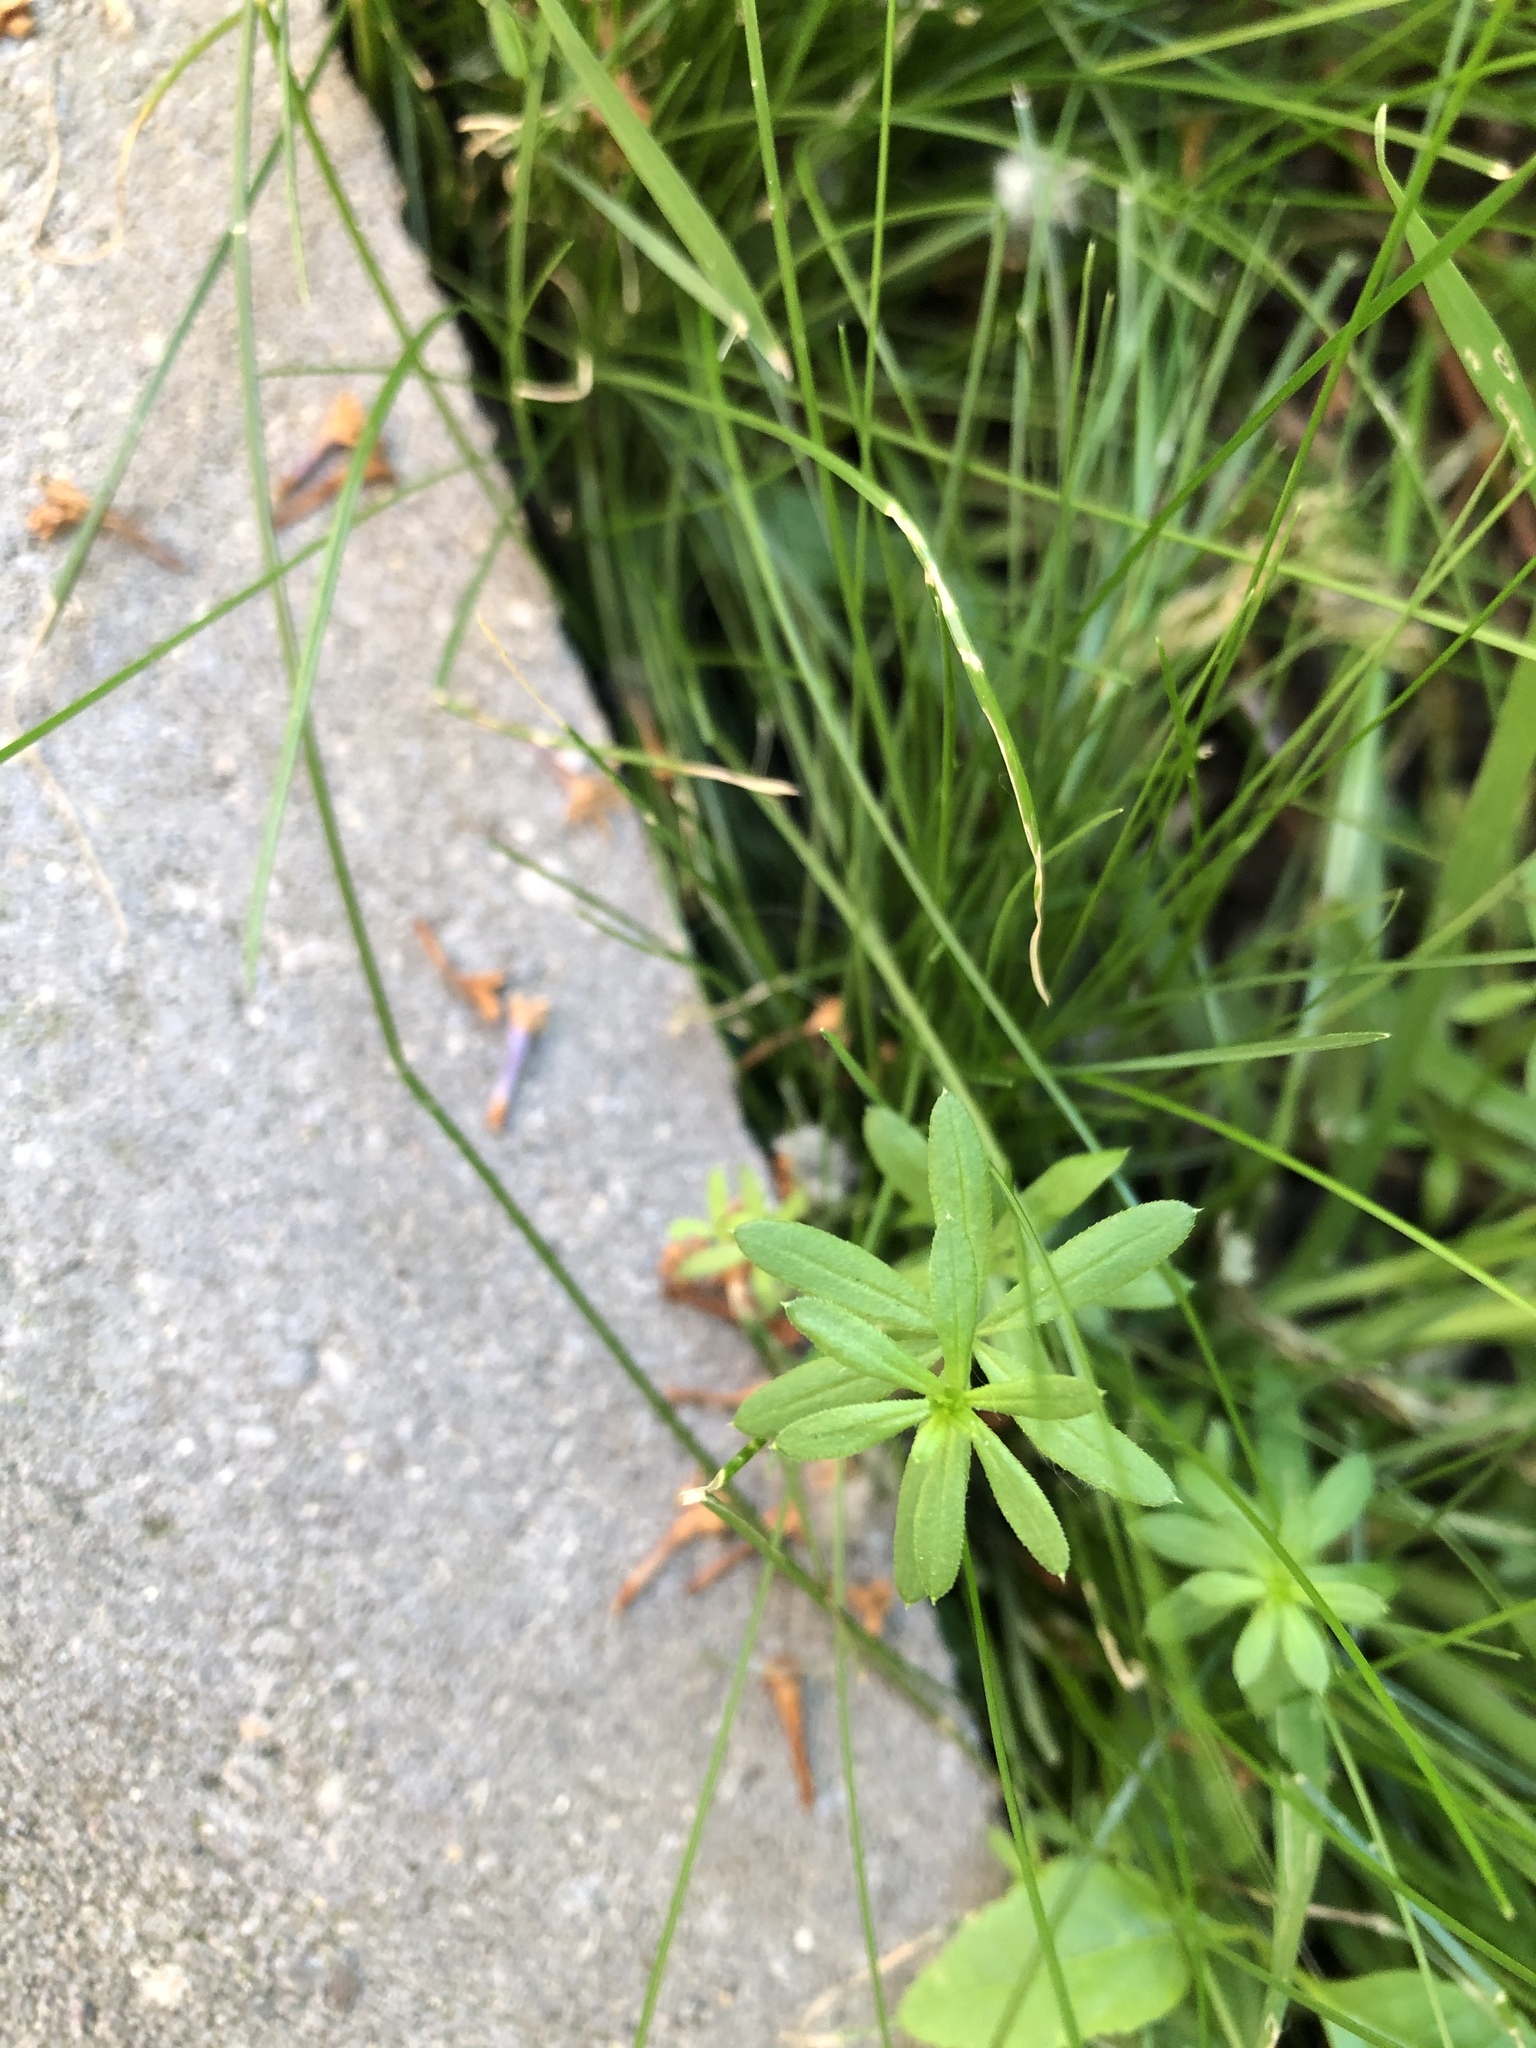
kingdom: Plantae
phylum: Tracheophyta
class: Magnoliopsida
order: Gentianales
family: Rubiaceae
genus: Galium
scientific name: Galium mollugo
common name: Hedge bedstraw
